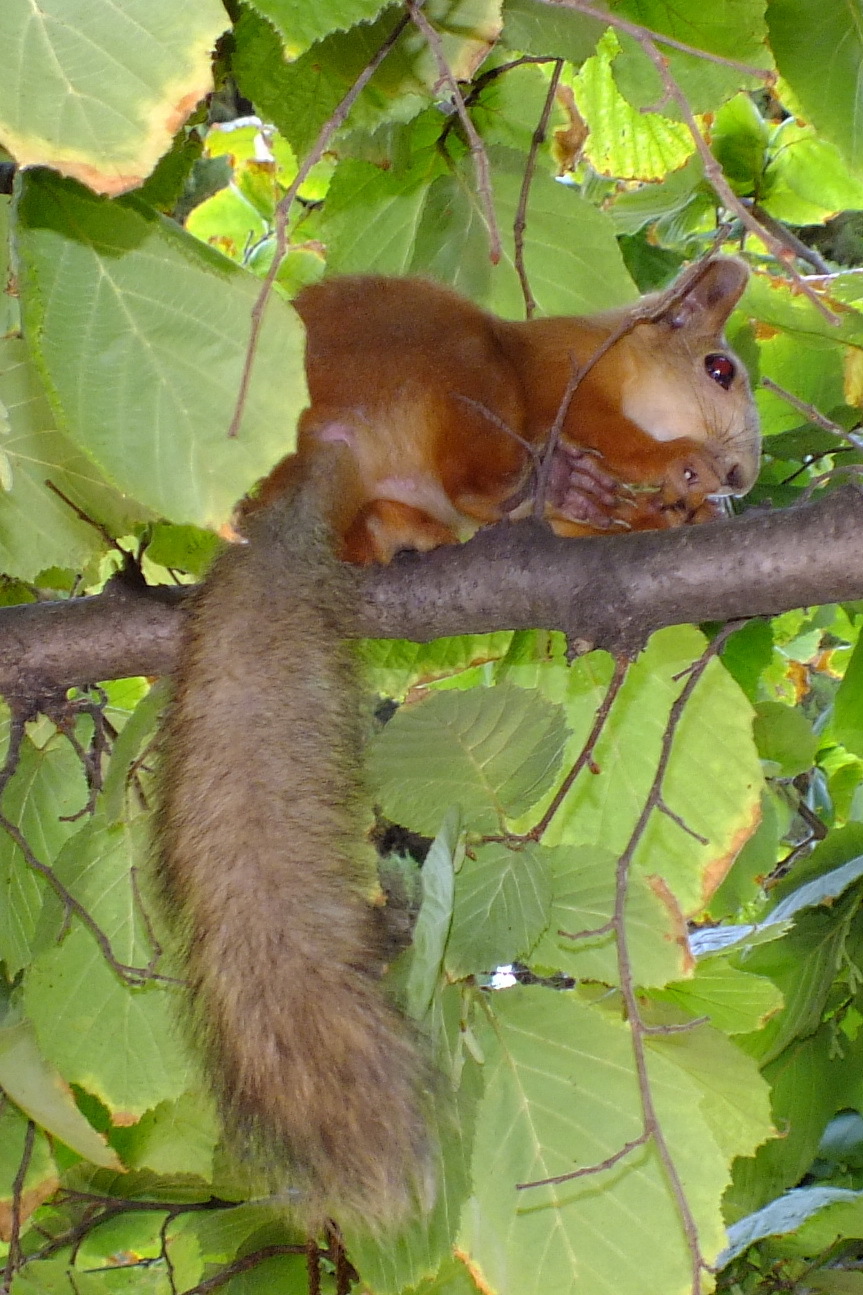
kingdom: Animalia
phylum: Chordata
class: Mammalia
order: Rodentia
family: Sciuridae
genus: Sciurus
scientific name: Sciurus vulgaris
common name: Eurasian red squirrel
